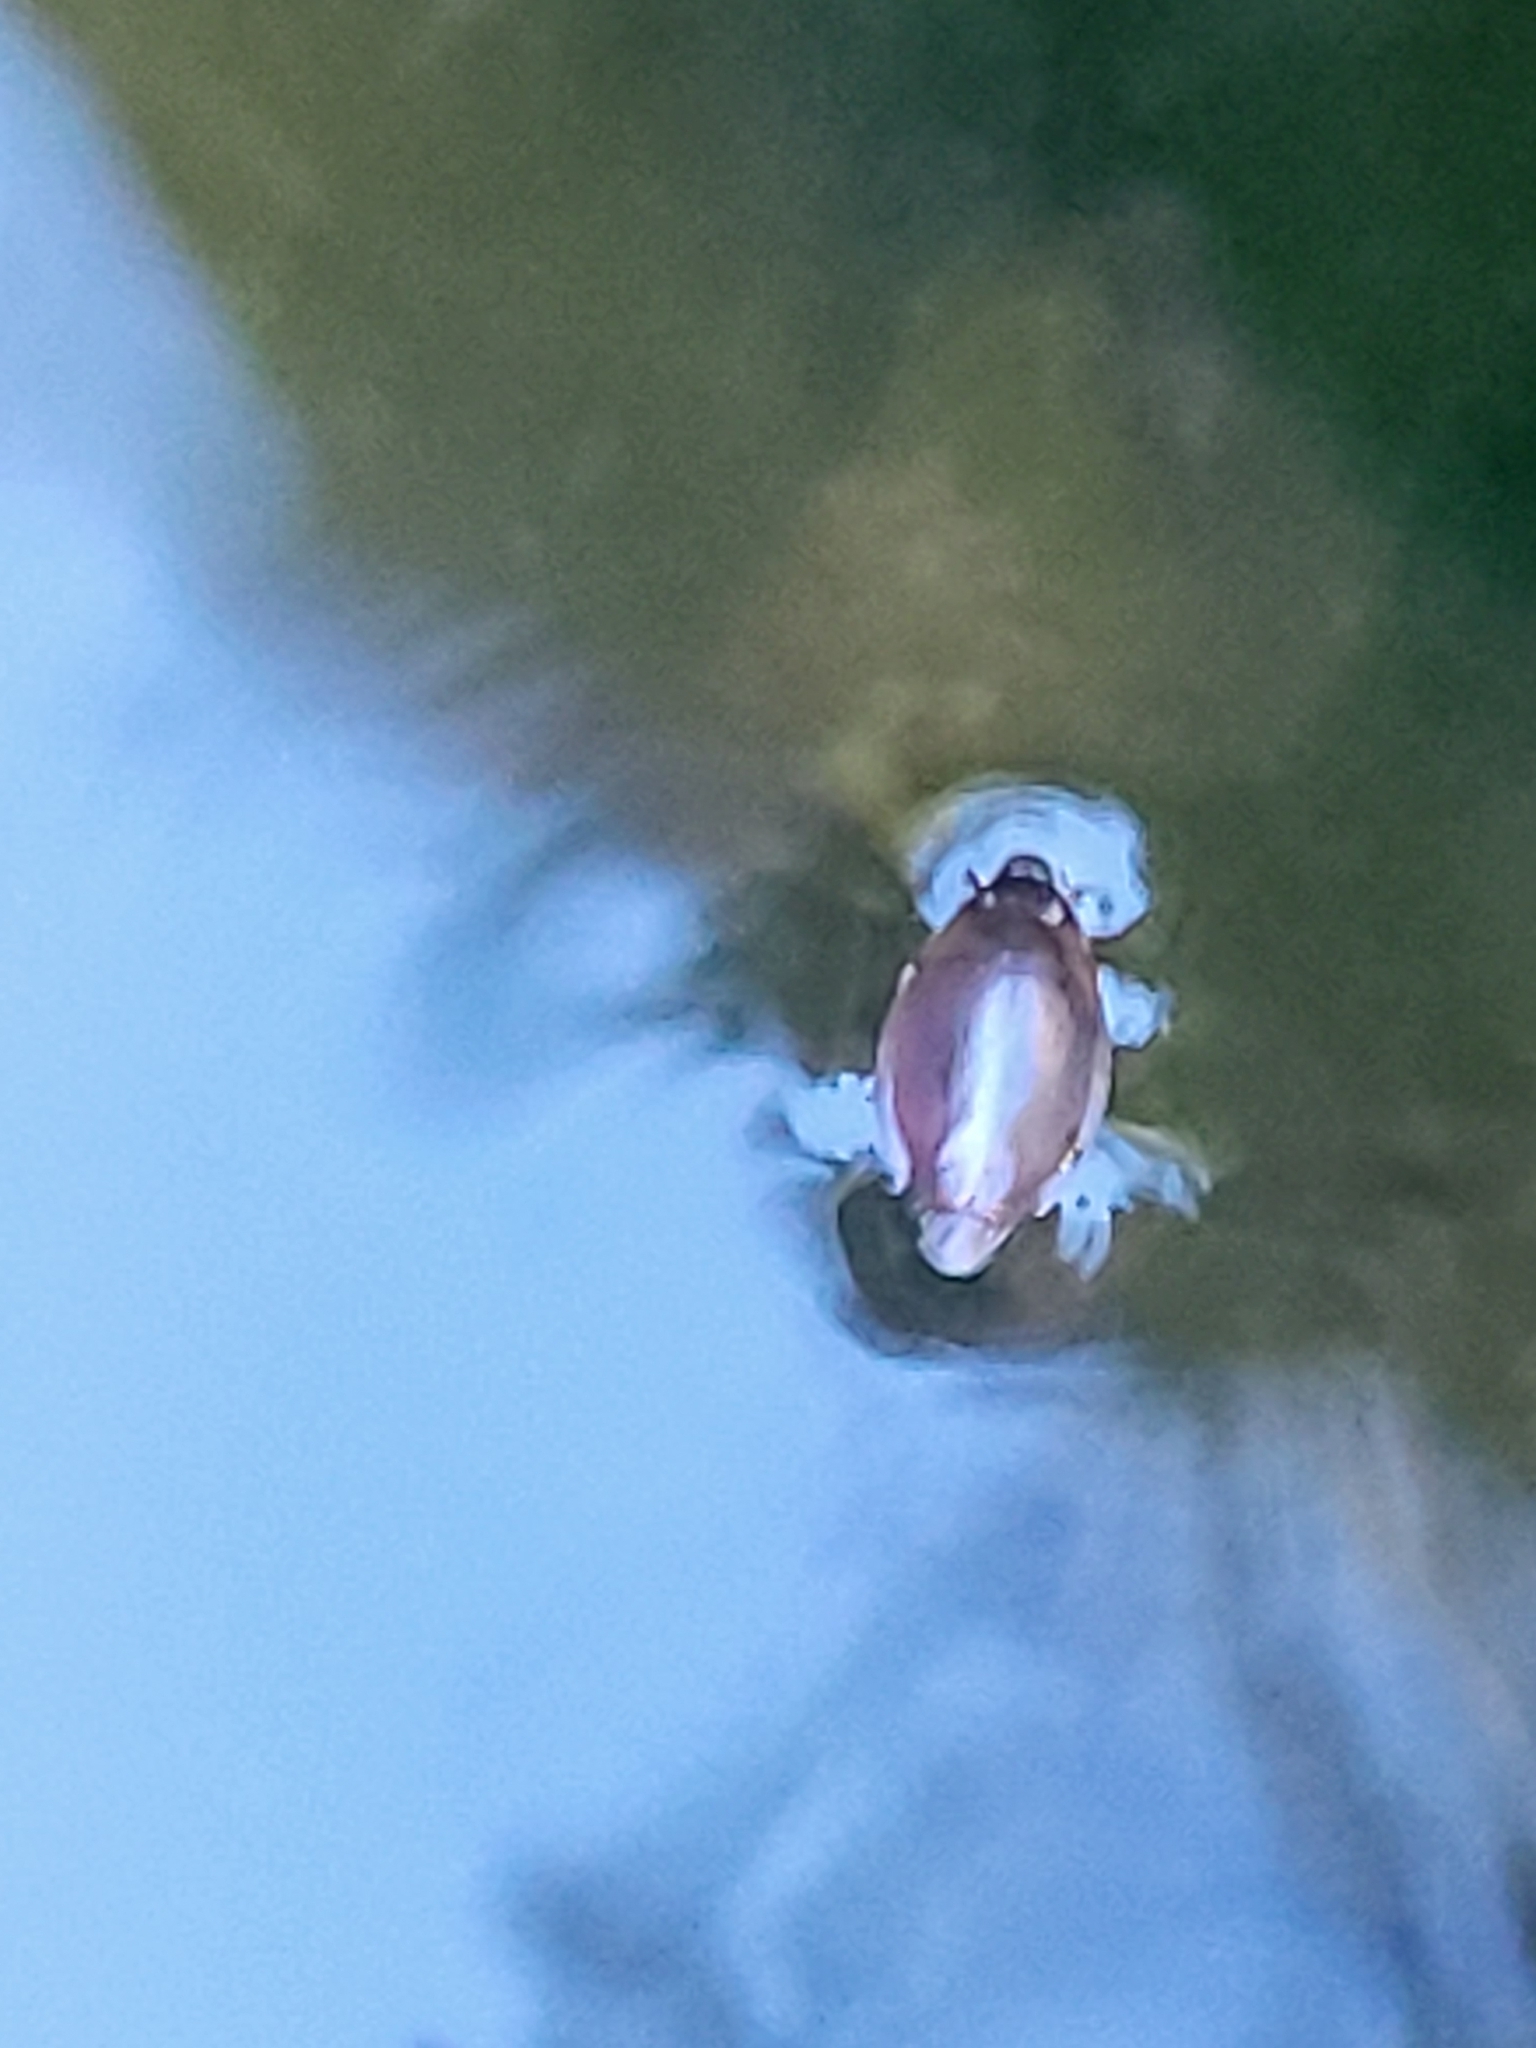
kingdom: Animalia
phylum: Arthropoda
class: Insecta
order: Coleoptera
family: Gyrinidae
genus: Dineutus
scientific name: Dineutus
